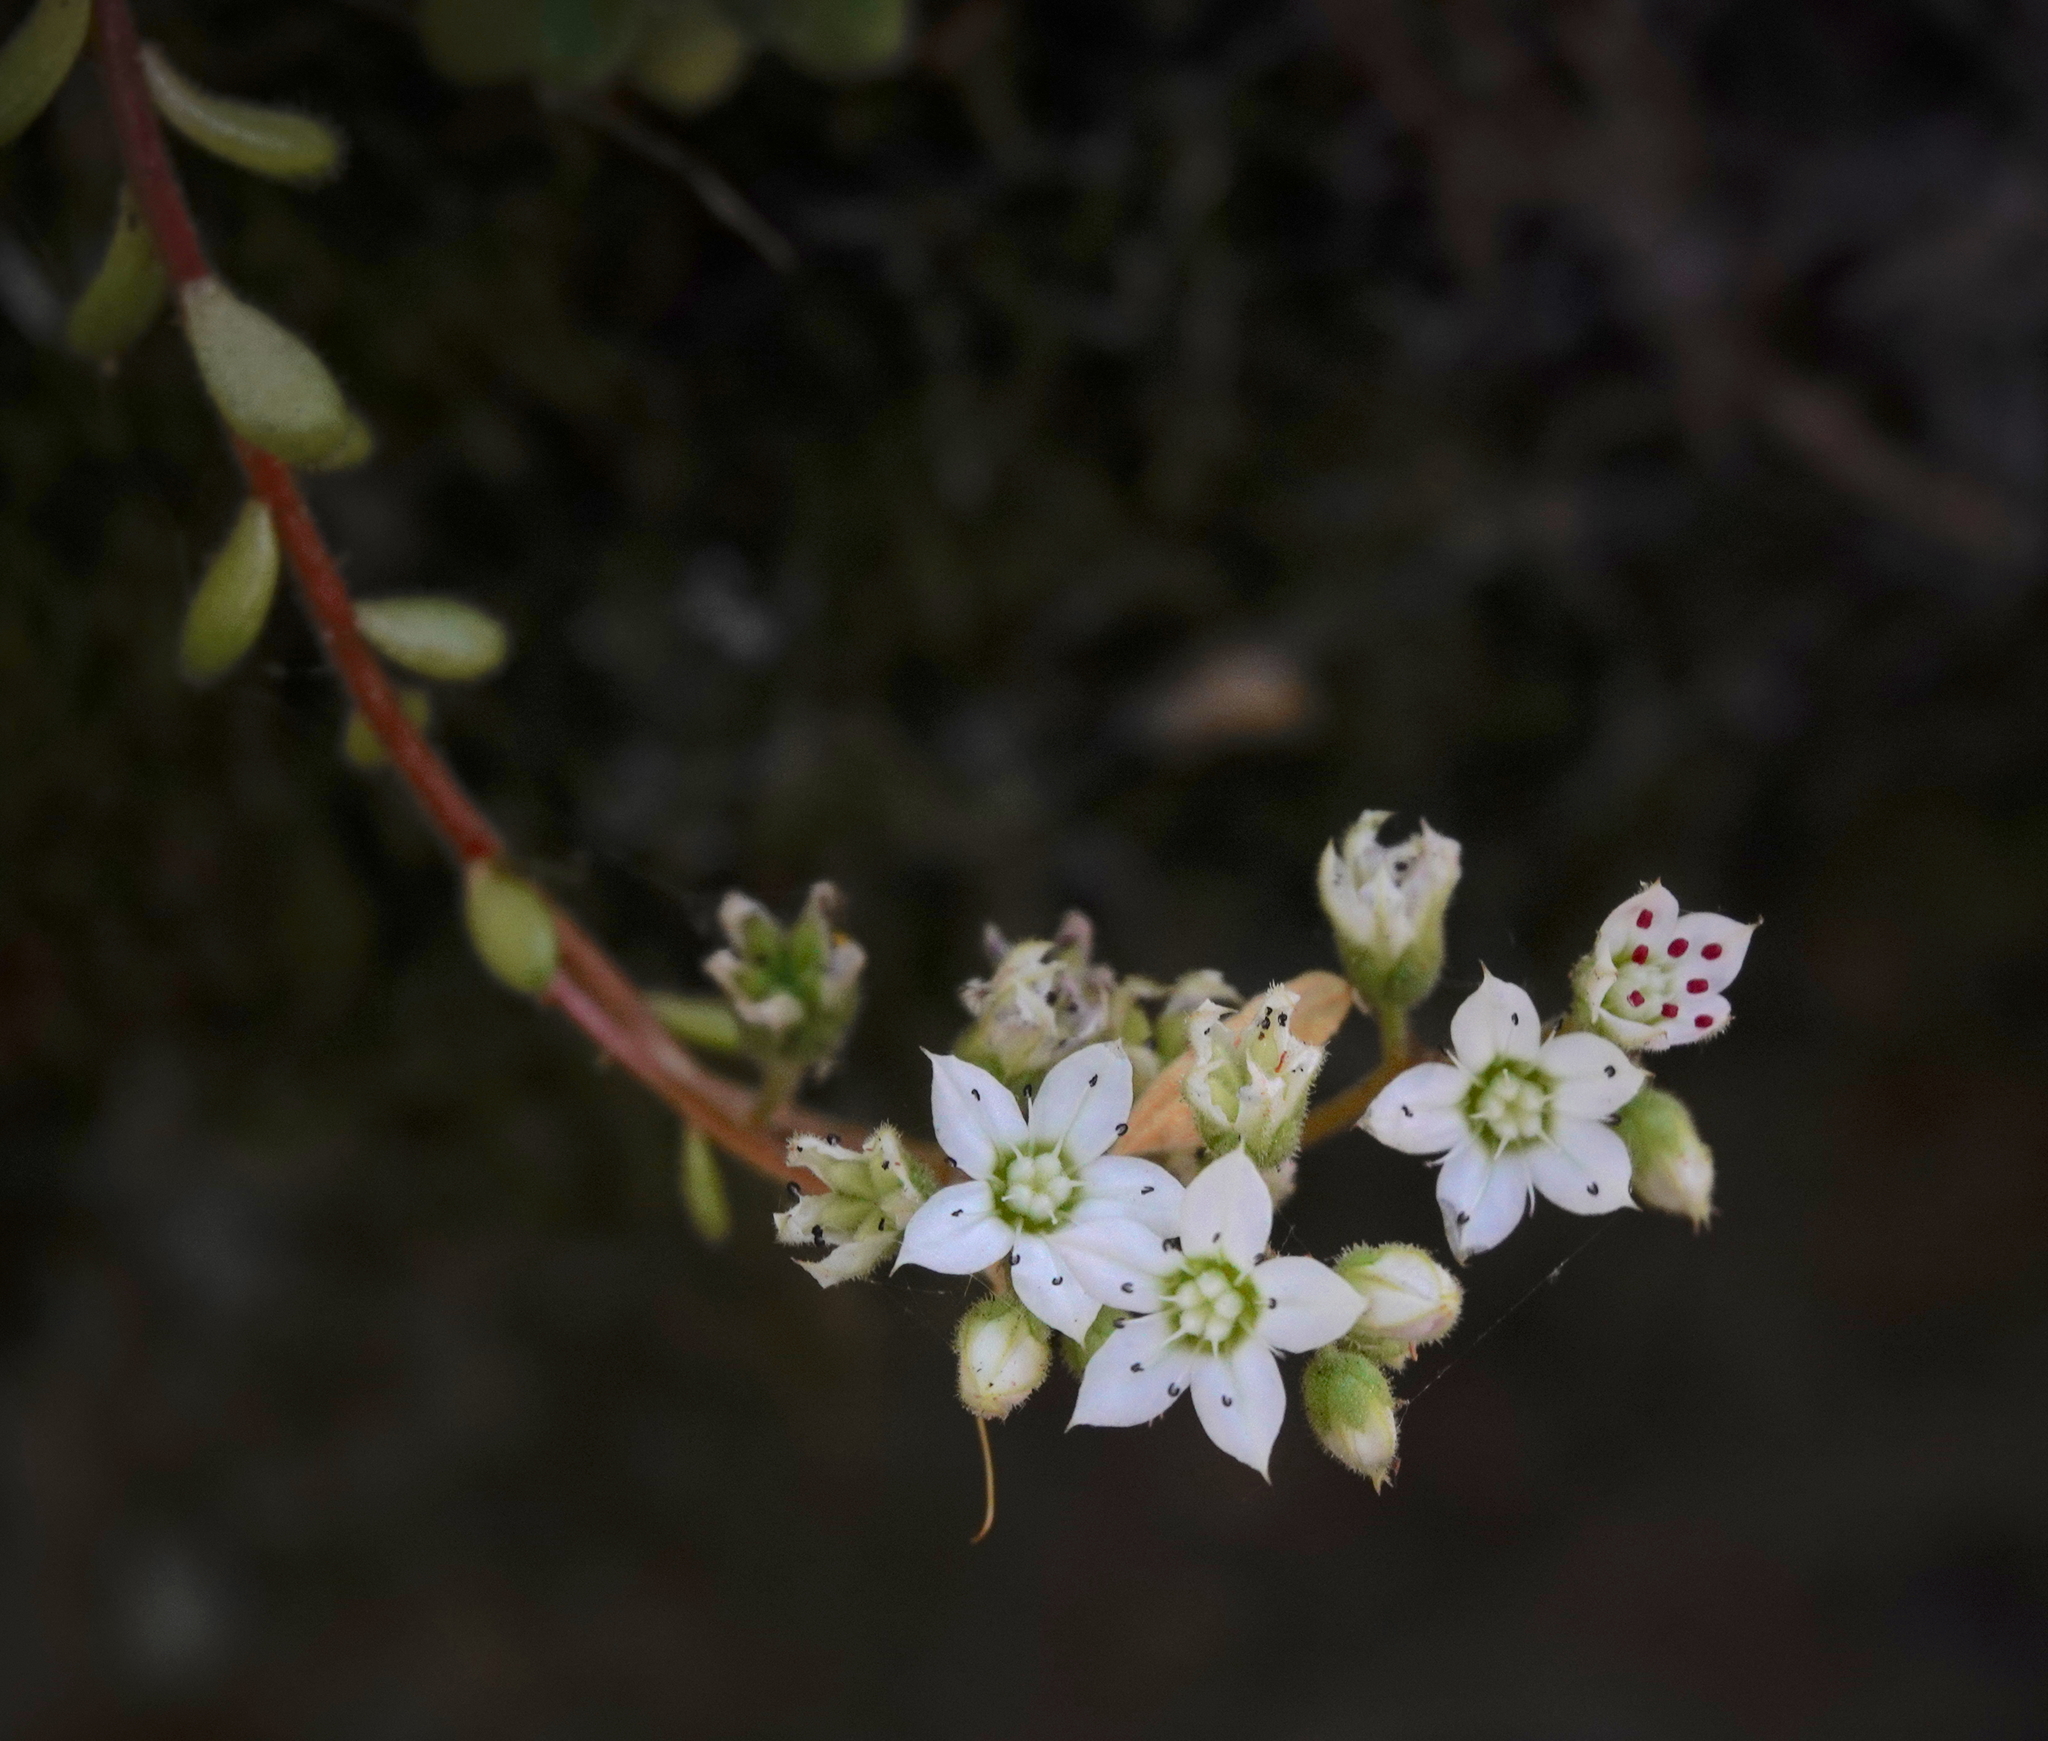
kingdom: Plantae
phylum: Tracheophyta
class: Magnoliopsida
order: Saxifragales
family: Crassulaceae
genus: Sedum
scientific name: Sedum hirsutum
